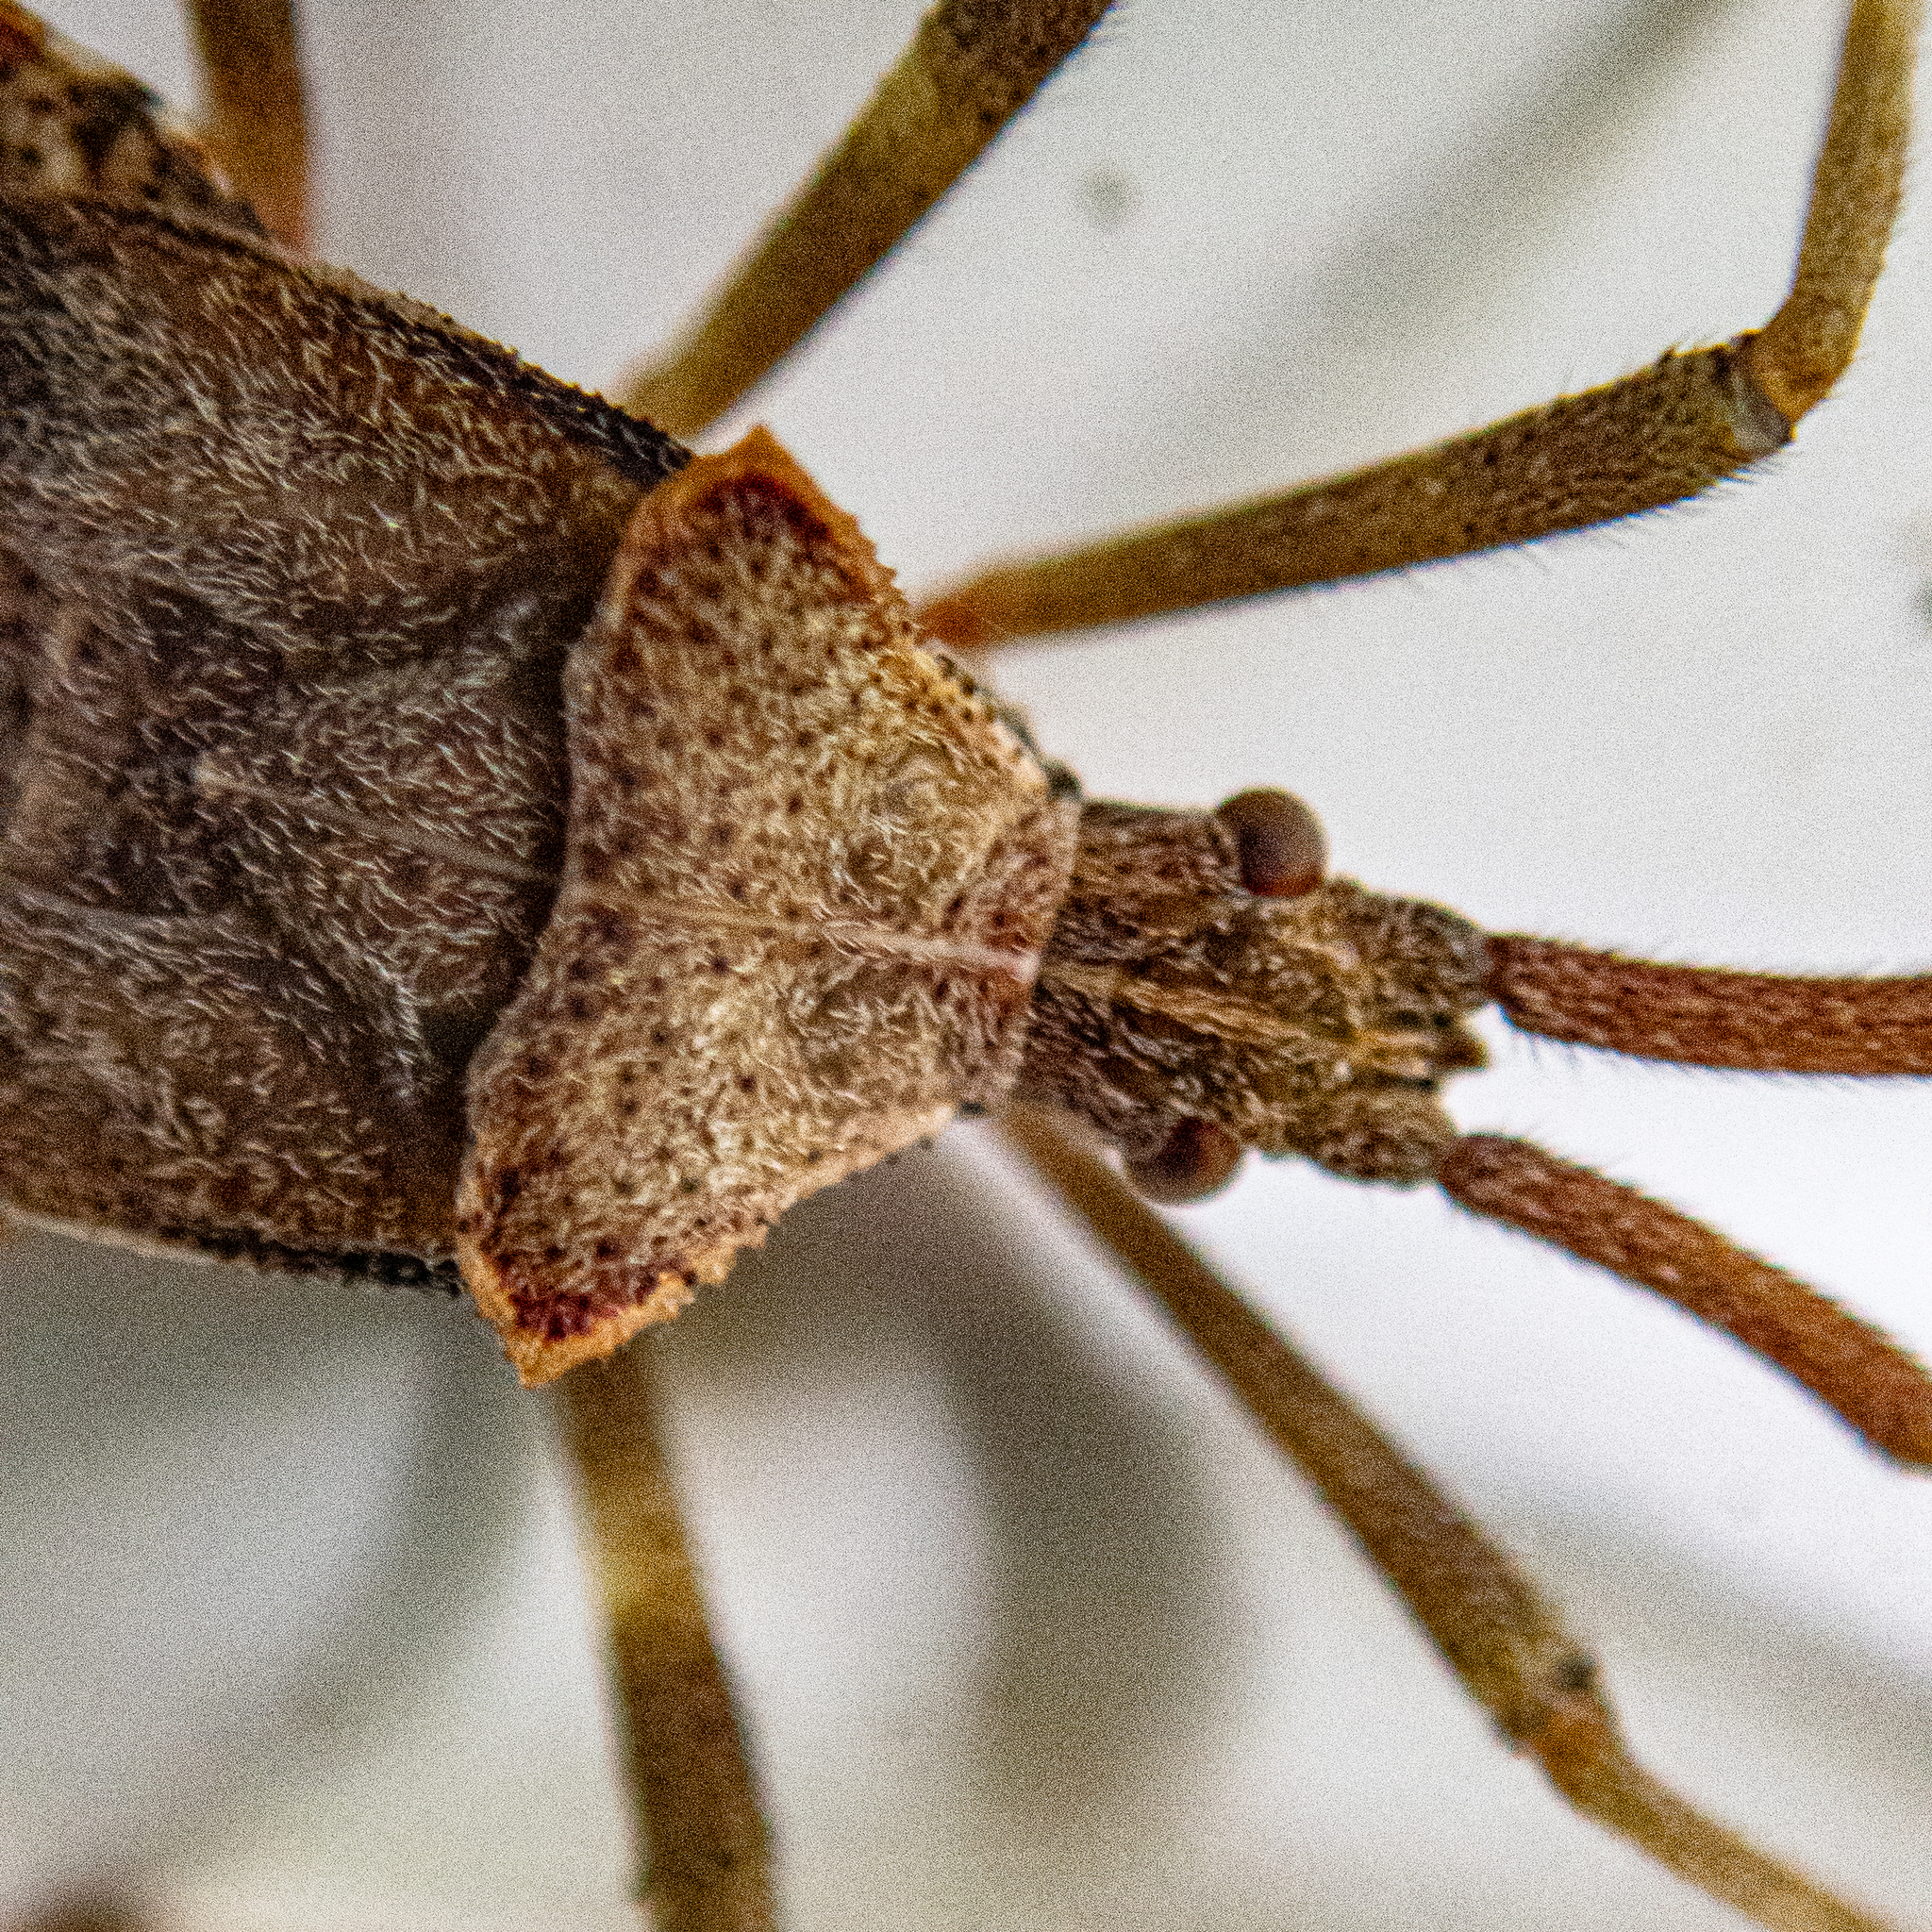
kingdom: Animalia
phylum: Arthropoda
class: Insecta
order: Hemiptera
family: Coreidae
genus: Acanthocephala
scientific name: Acanthocephala terminalis
